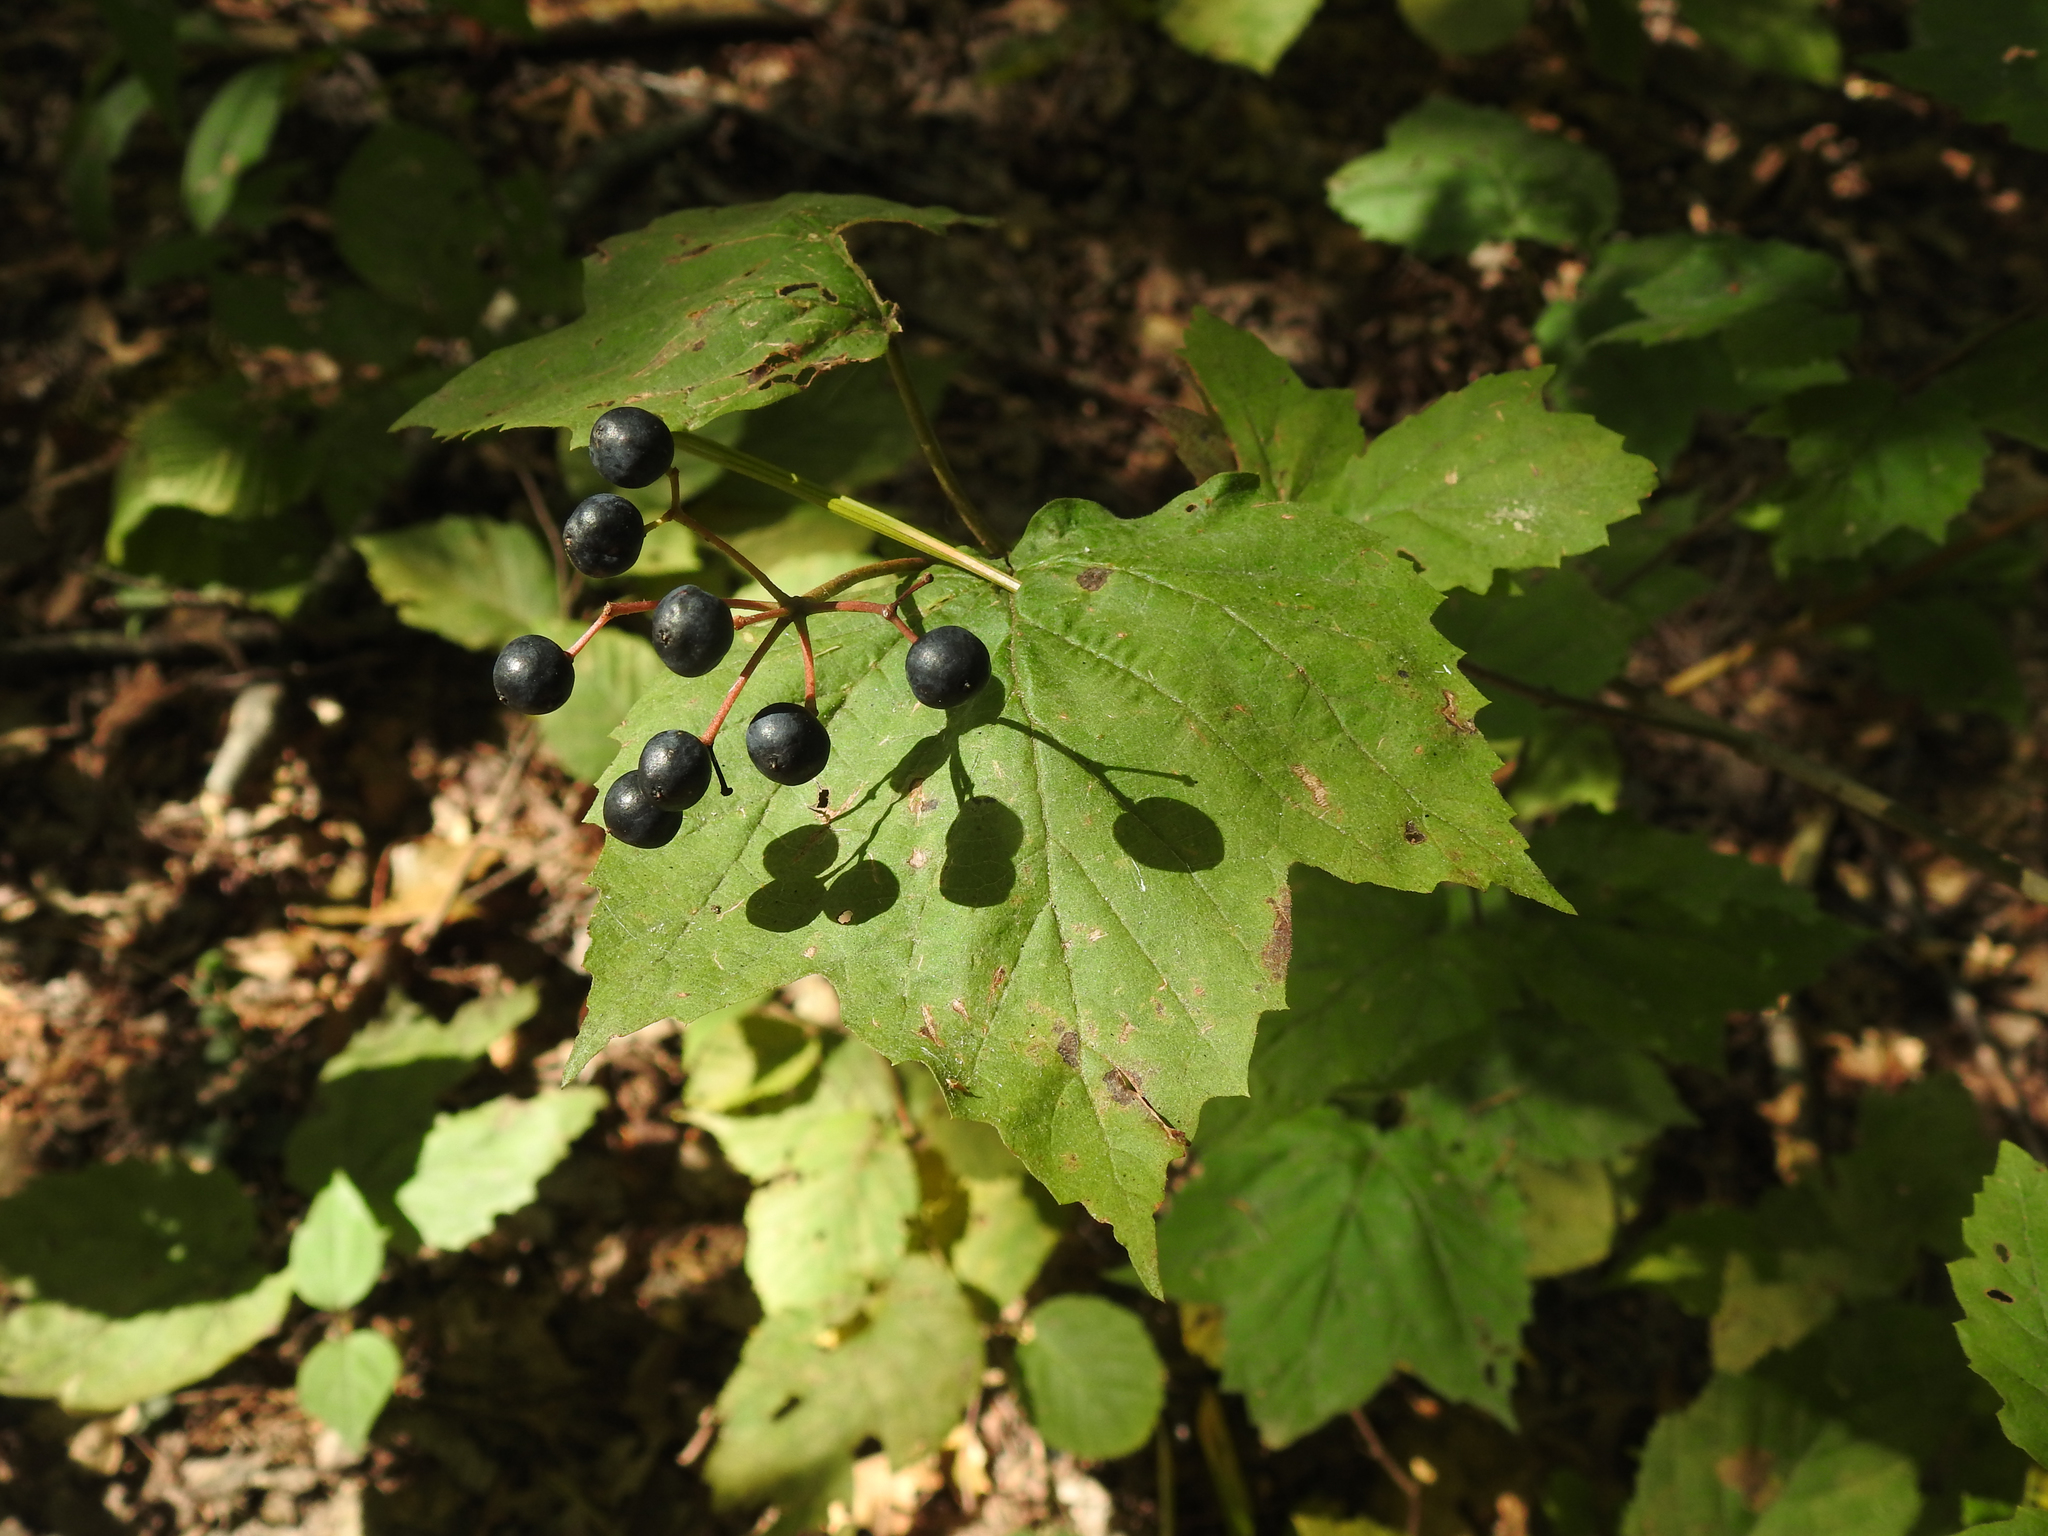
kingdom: Plantae
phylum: Tracheophyta
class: Magnoliopsida
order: Dipsacales
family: Viburnaceae
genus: Viburnum
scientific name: Viburnum acerifolium
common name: Dockmackie
